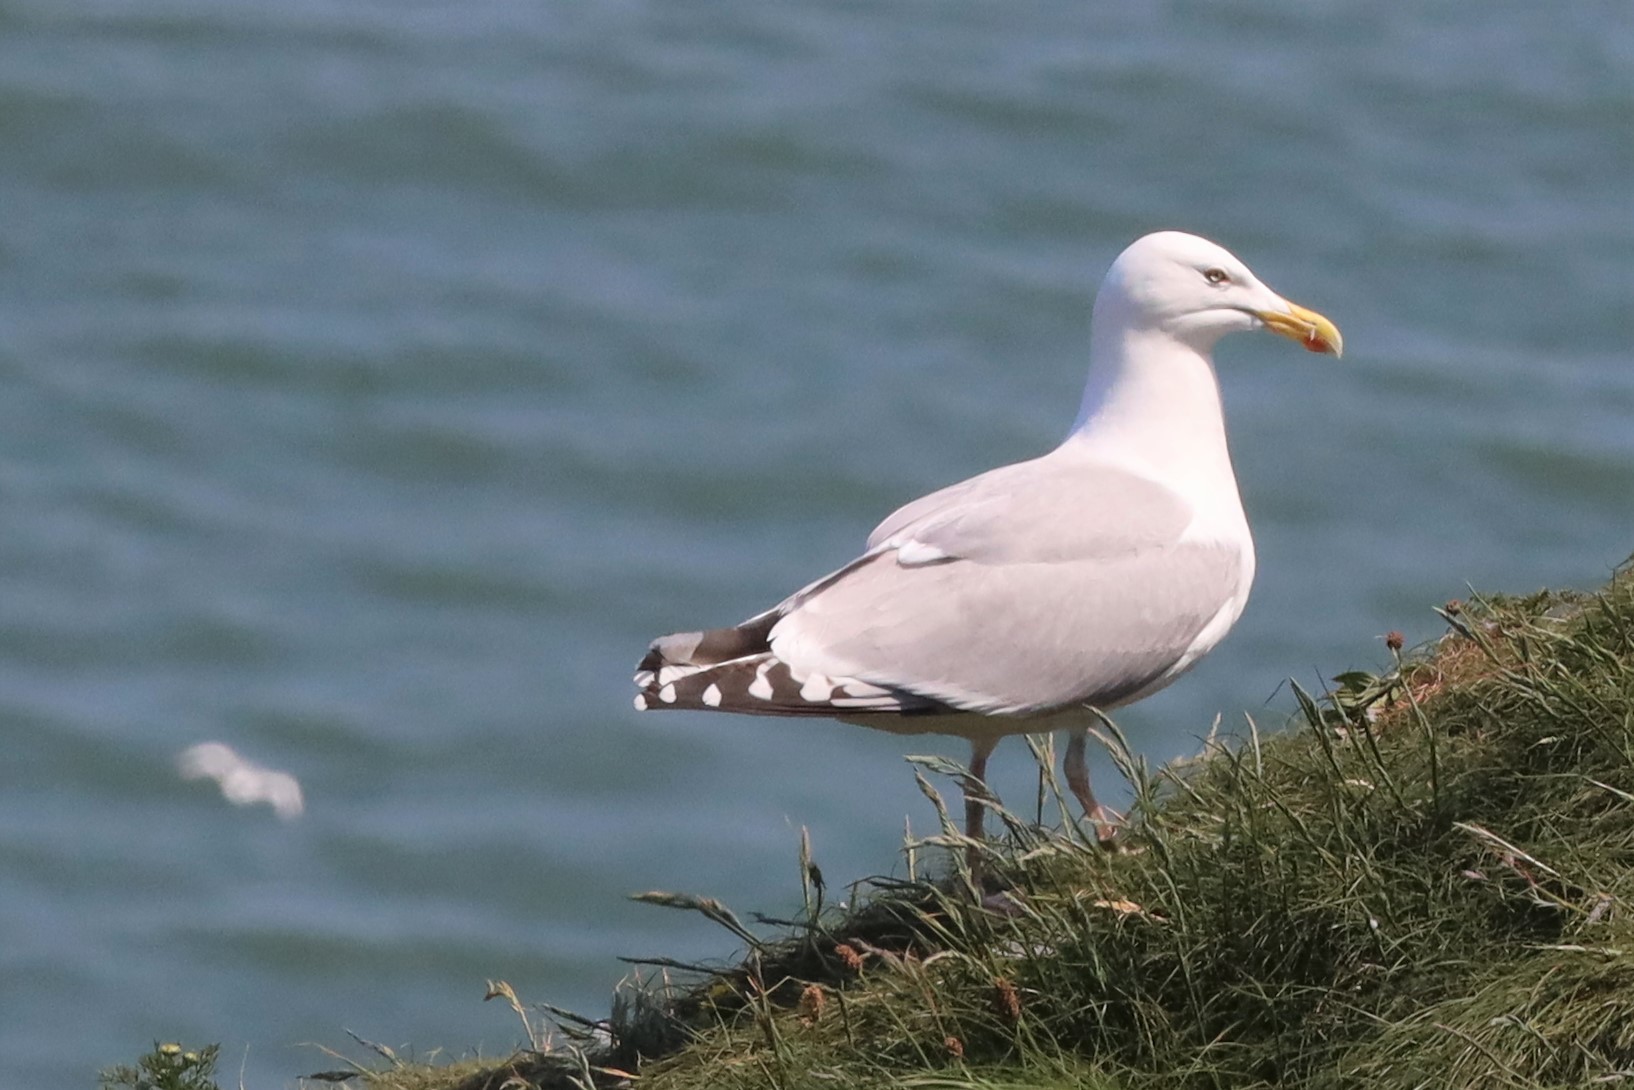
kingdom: Animalia
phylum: Chordata
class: Aves
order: Charadriiformes
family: Laridae
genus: Larus
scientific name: Larus argentatus
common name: Herring gull
